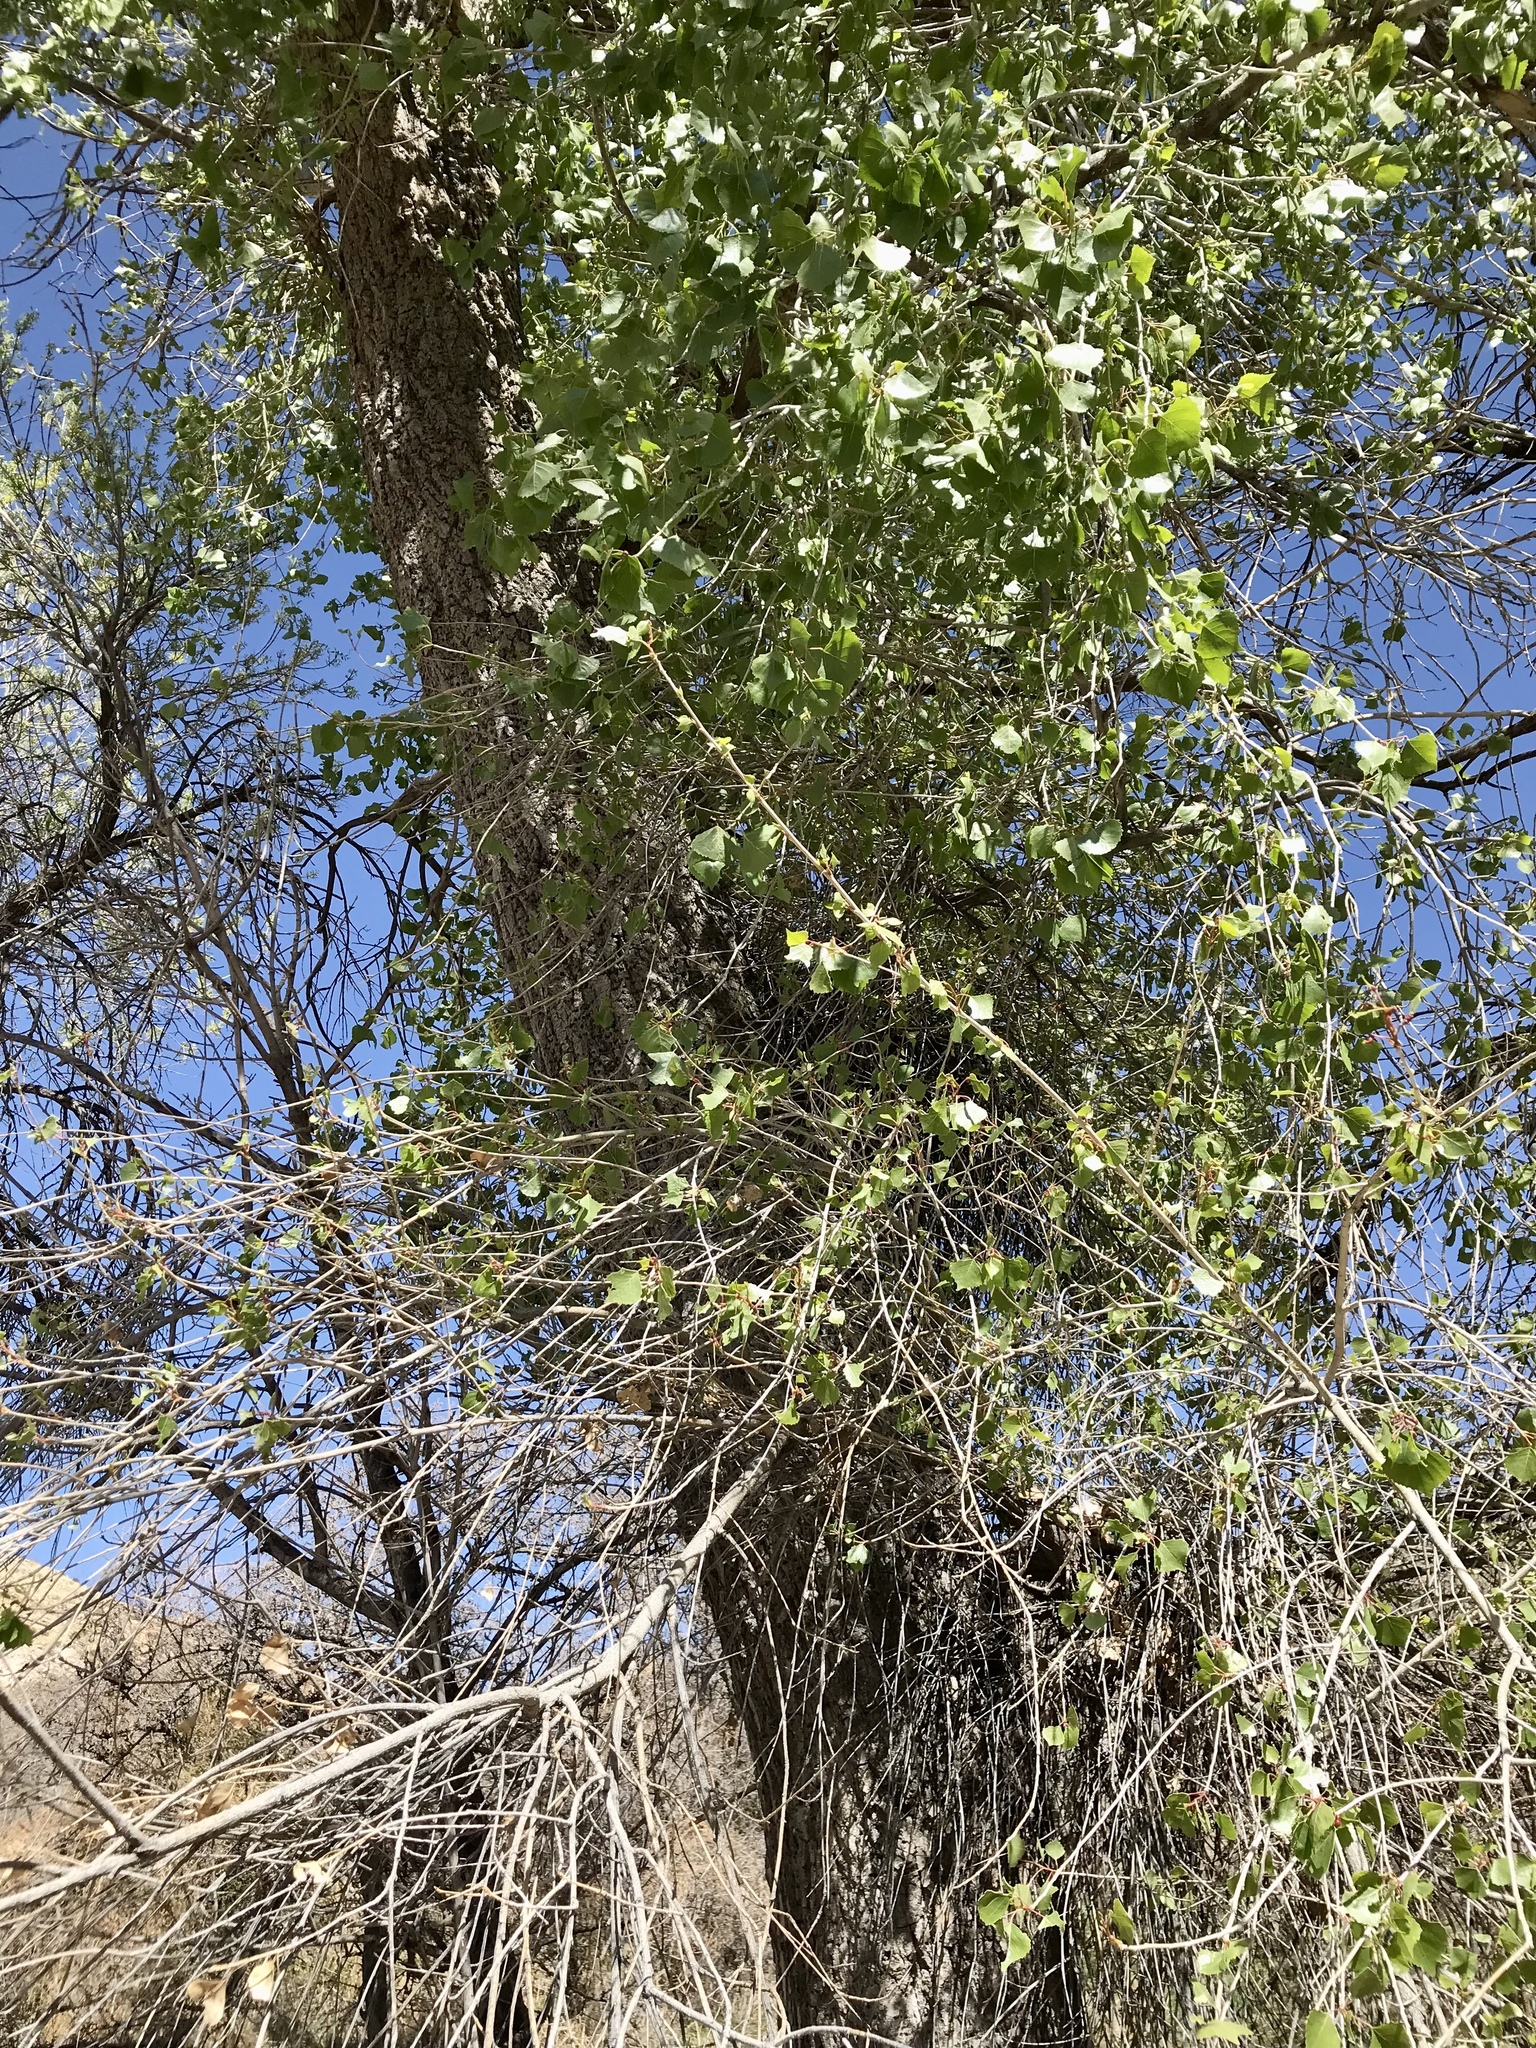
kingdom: Plantae
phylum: Tracheophyta
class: Magnoliopsida
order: Malpighiales
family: Salicaceae
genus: Populus
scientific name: Populus fremontii
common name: Fremont's cottonwood
